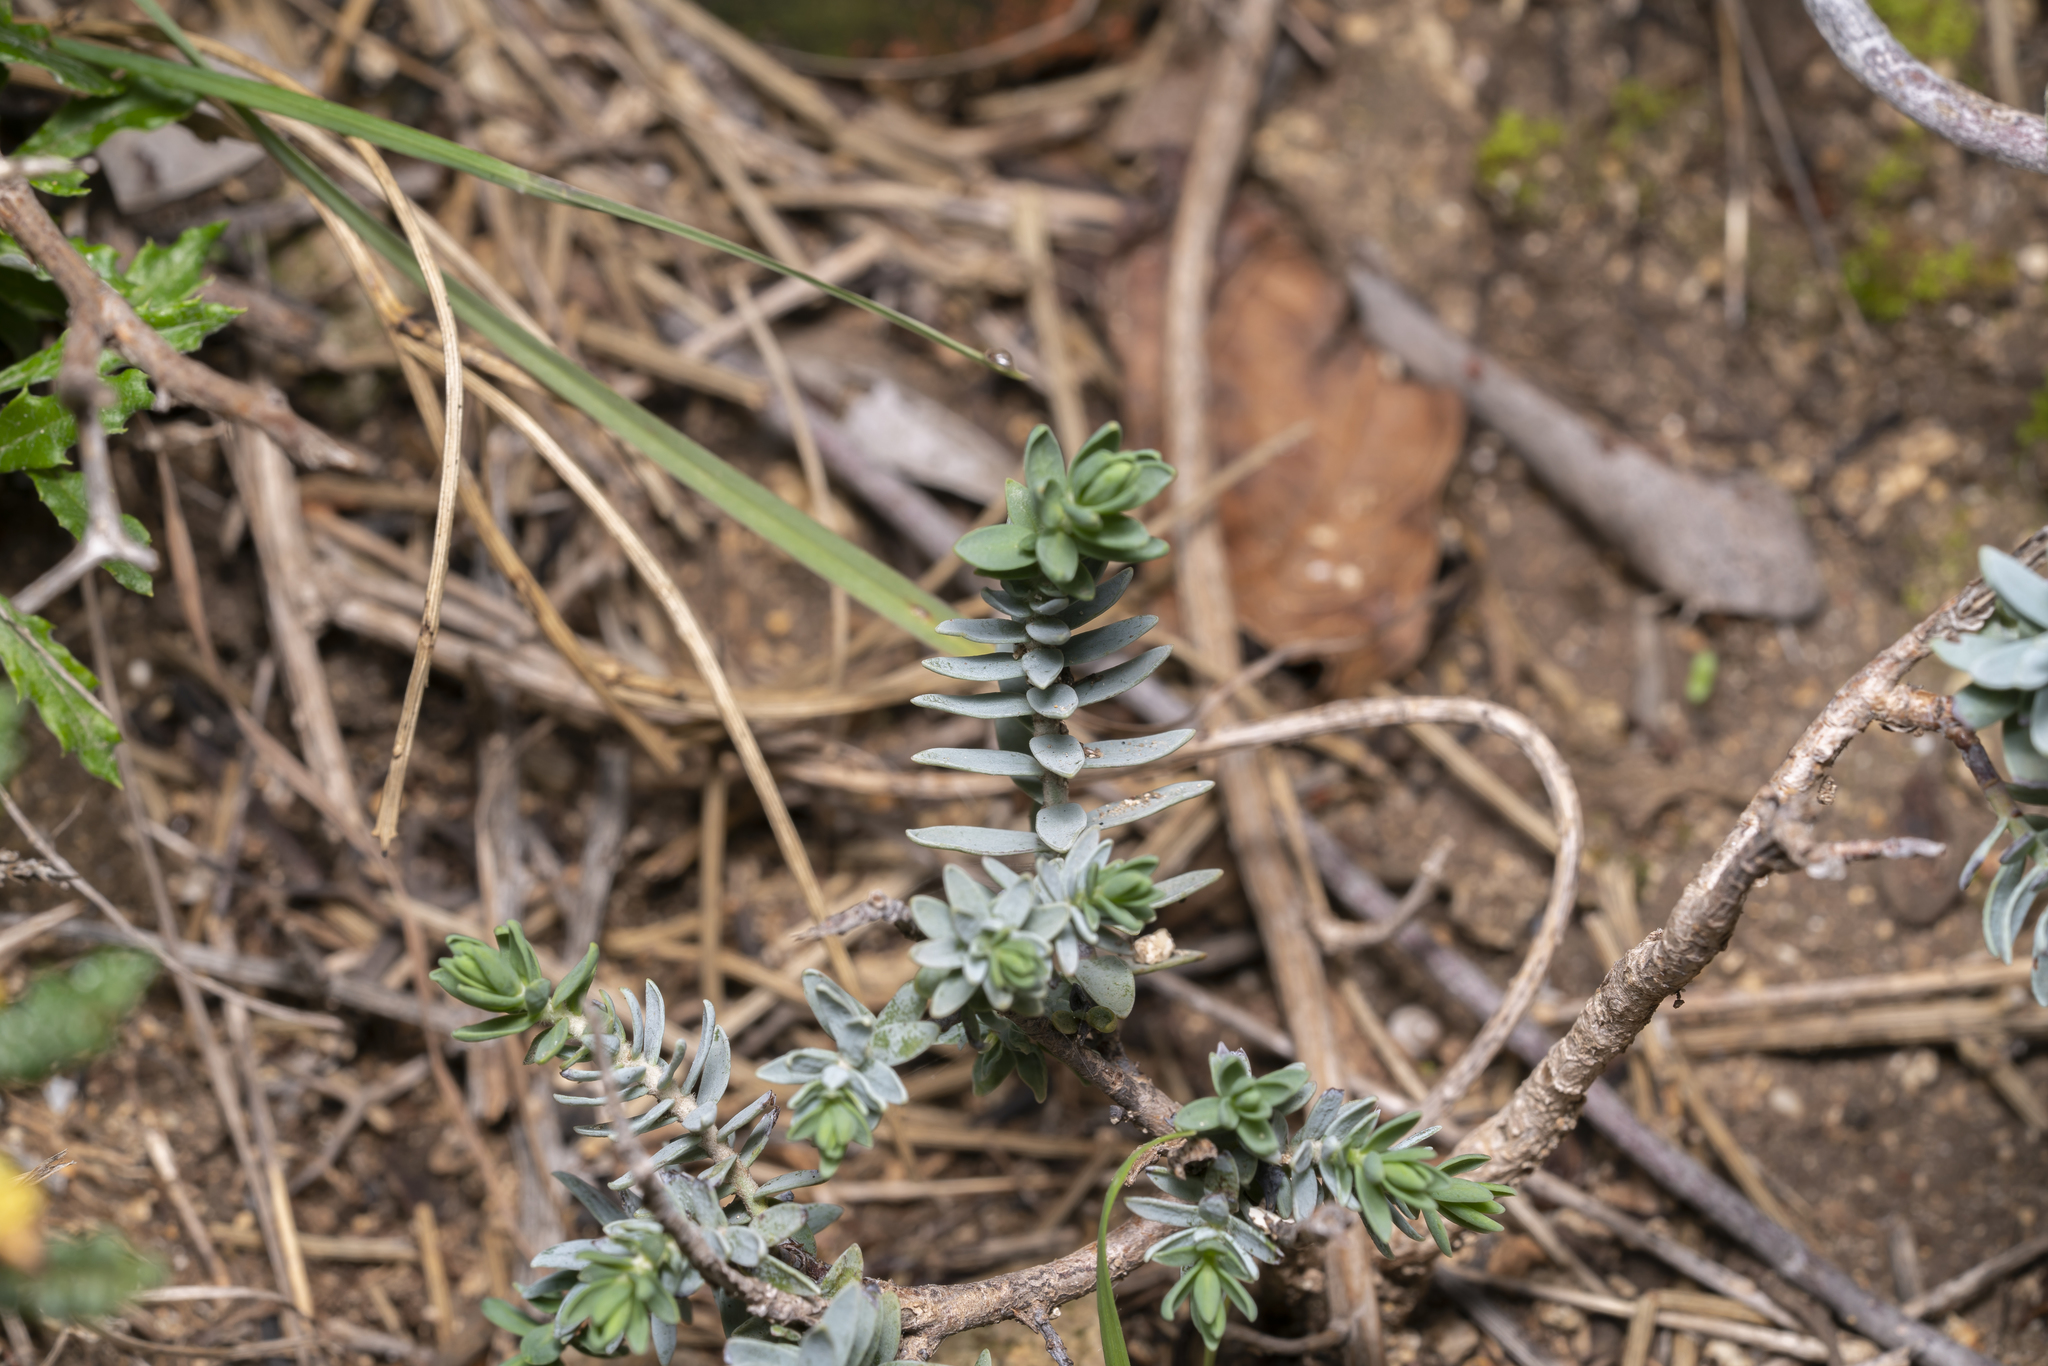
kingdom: Plantae
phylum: Tracheophyta
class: Magnoliopsida
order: Malvales
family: Thymelaeaceae
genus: Thymelaea
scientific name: Thymelaea tartonraira
